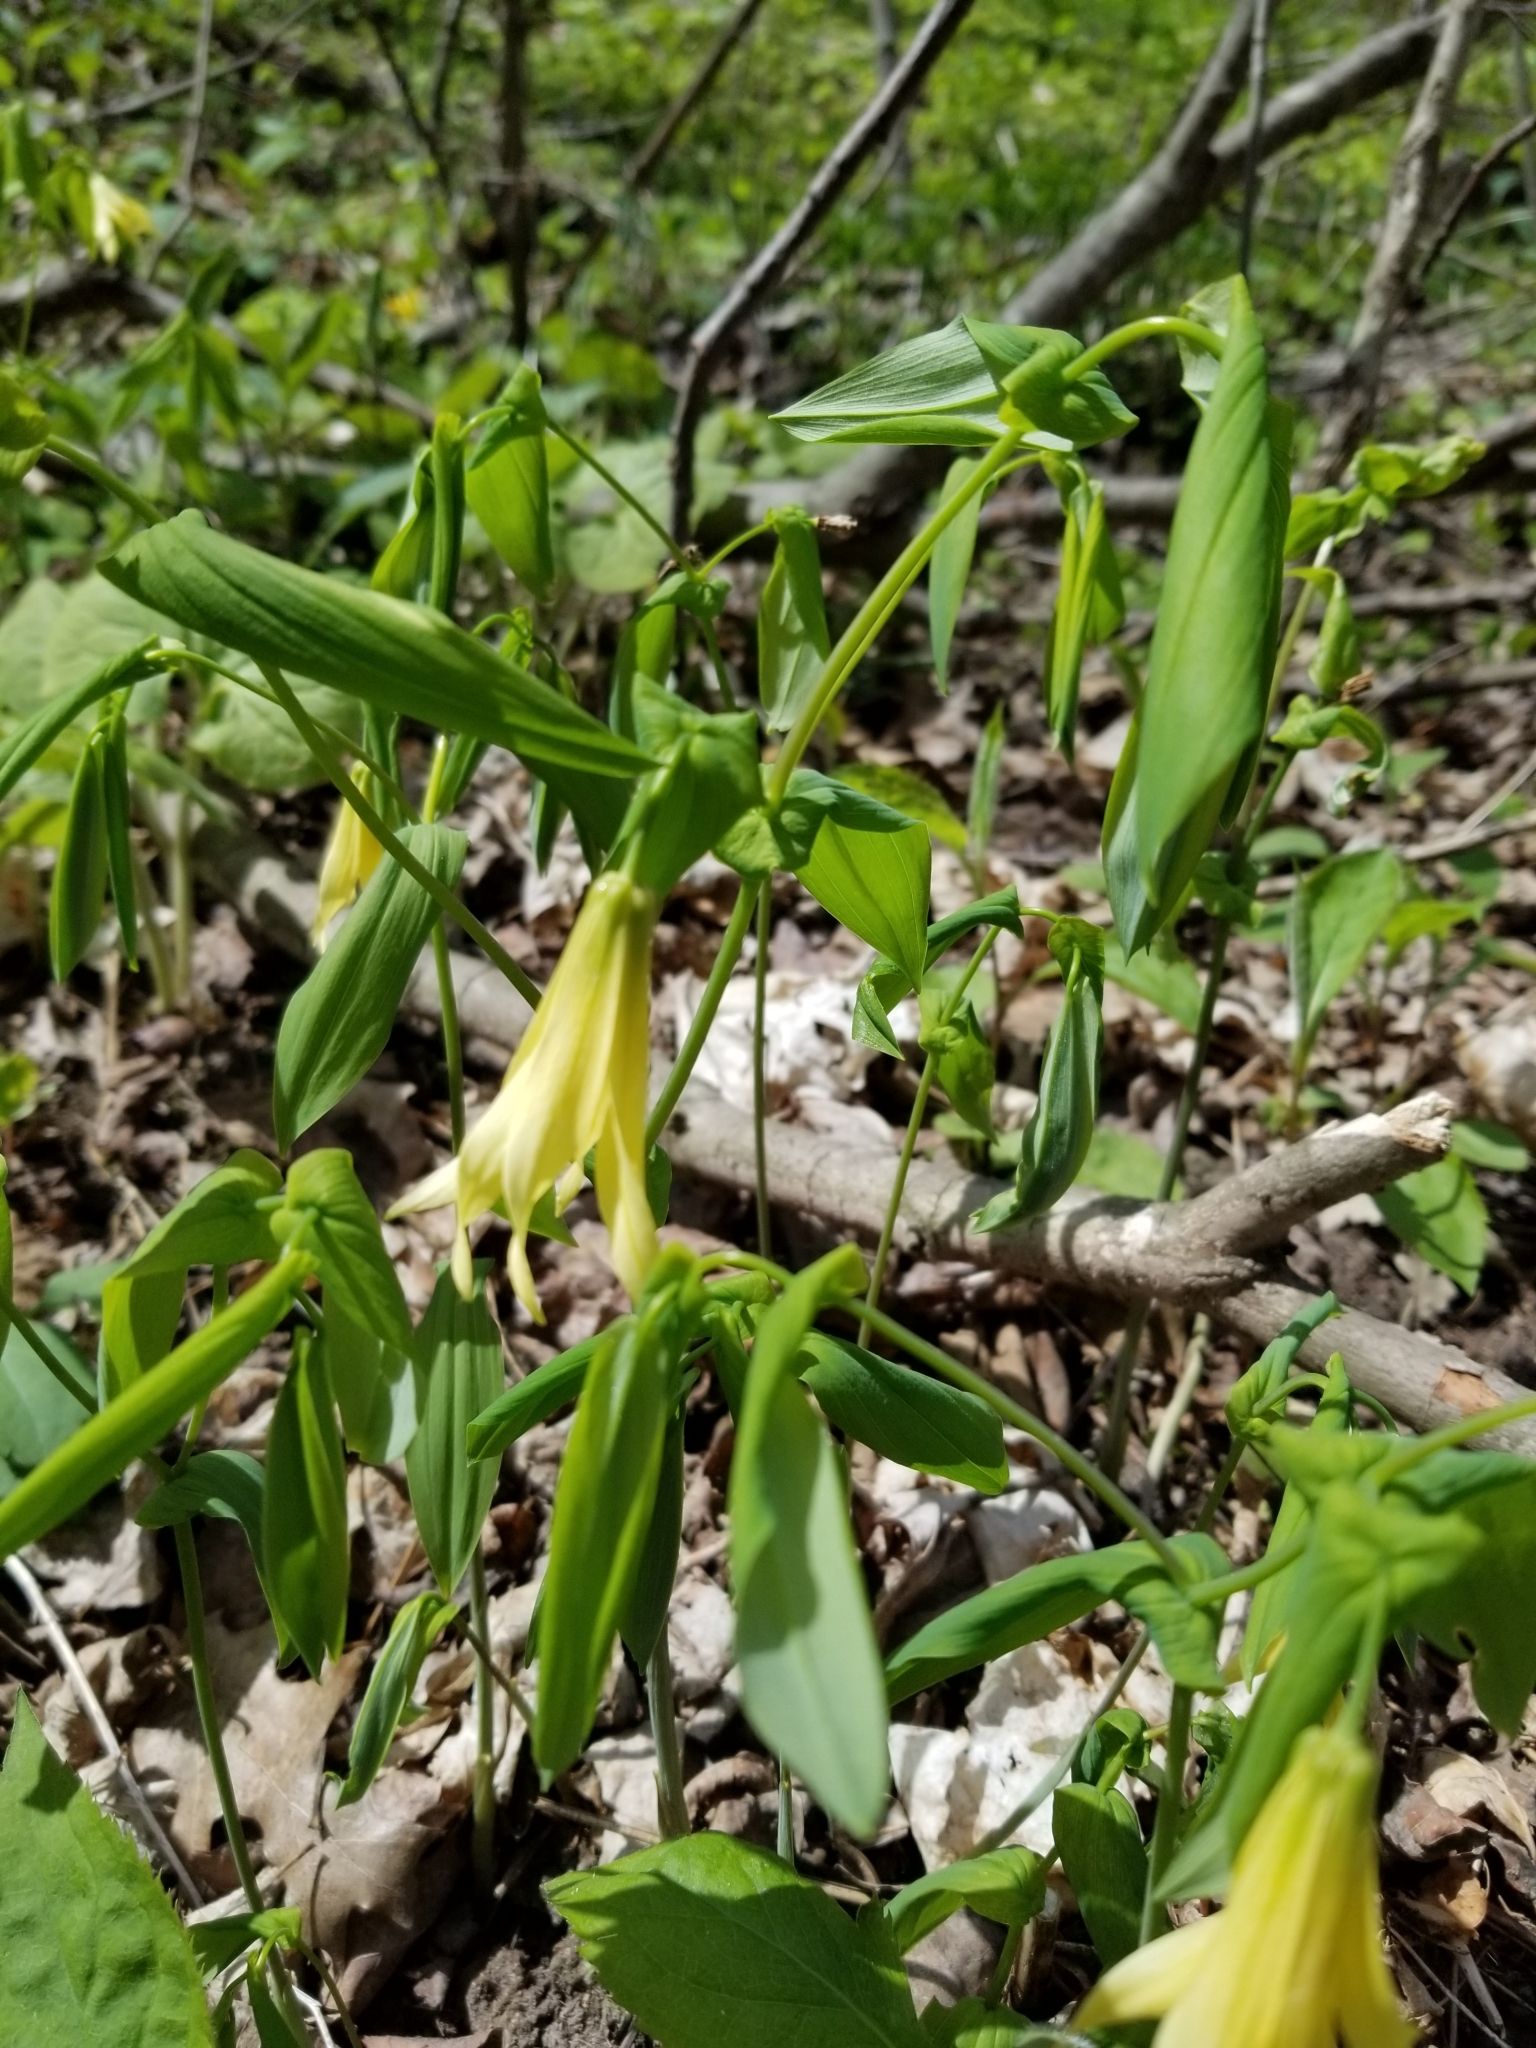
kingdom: Plantae
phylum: Tracheophyta
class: Liliopsida
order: Liliales
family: Colchicaceae
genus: Uvularia
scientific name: Uvularia grandiflora
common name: Bellwort
